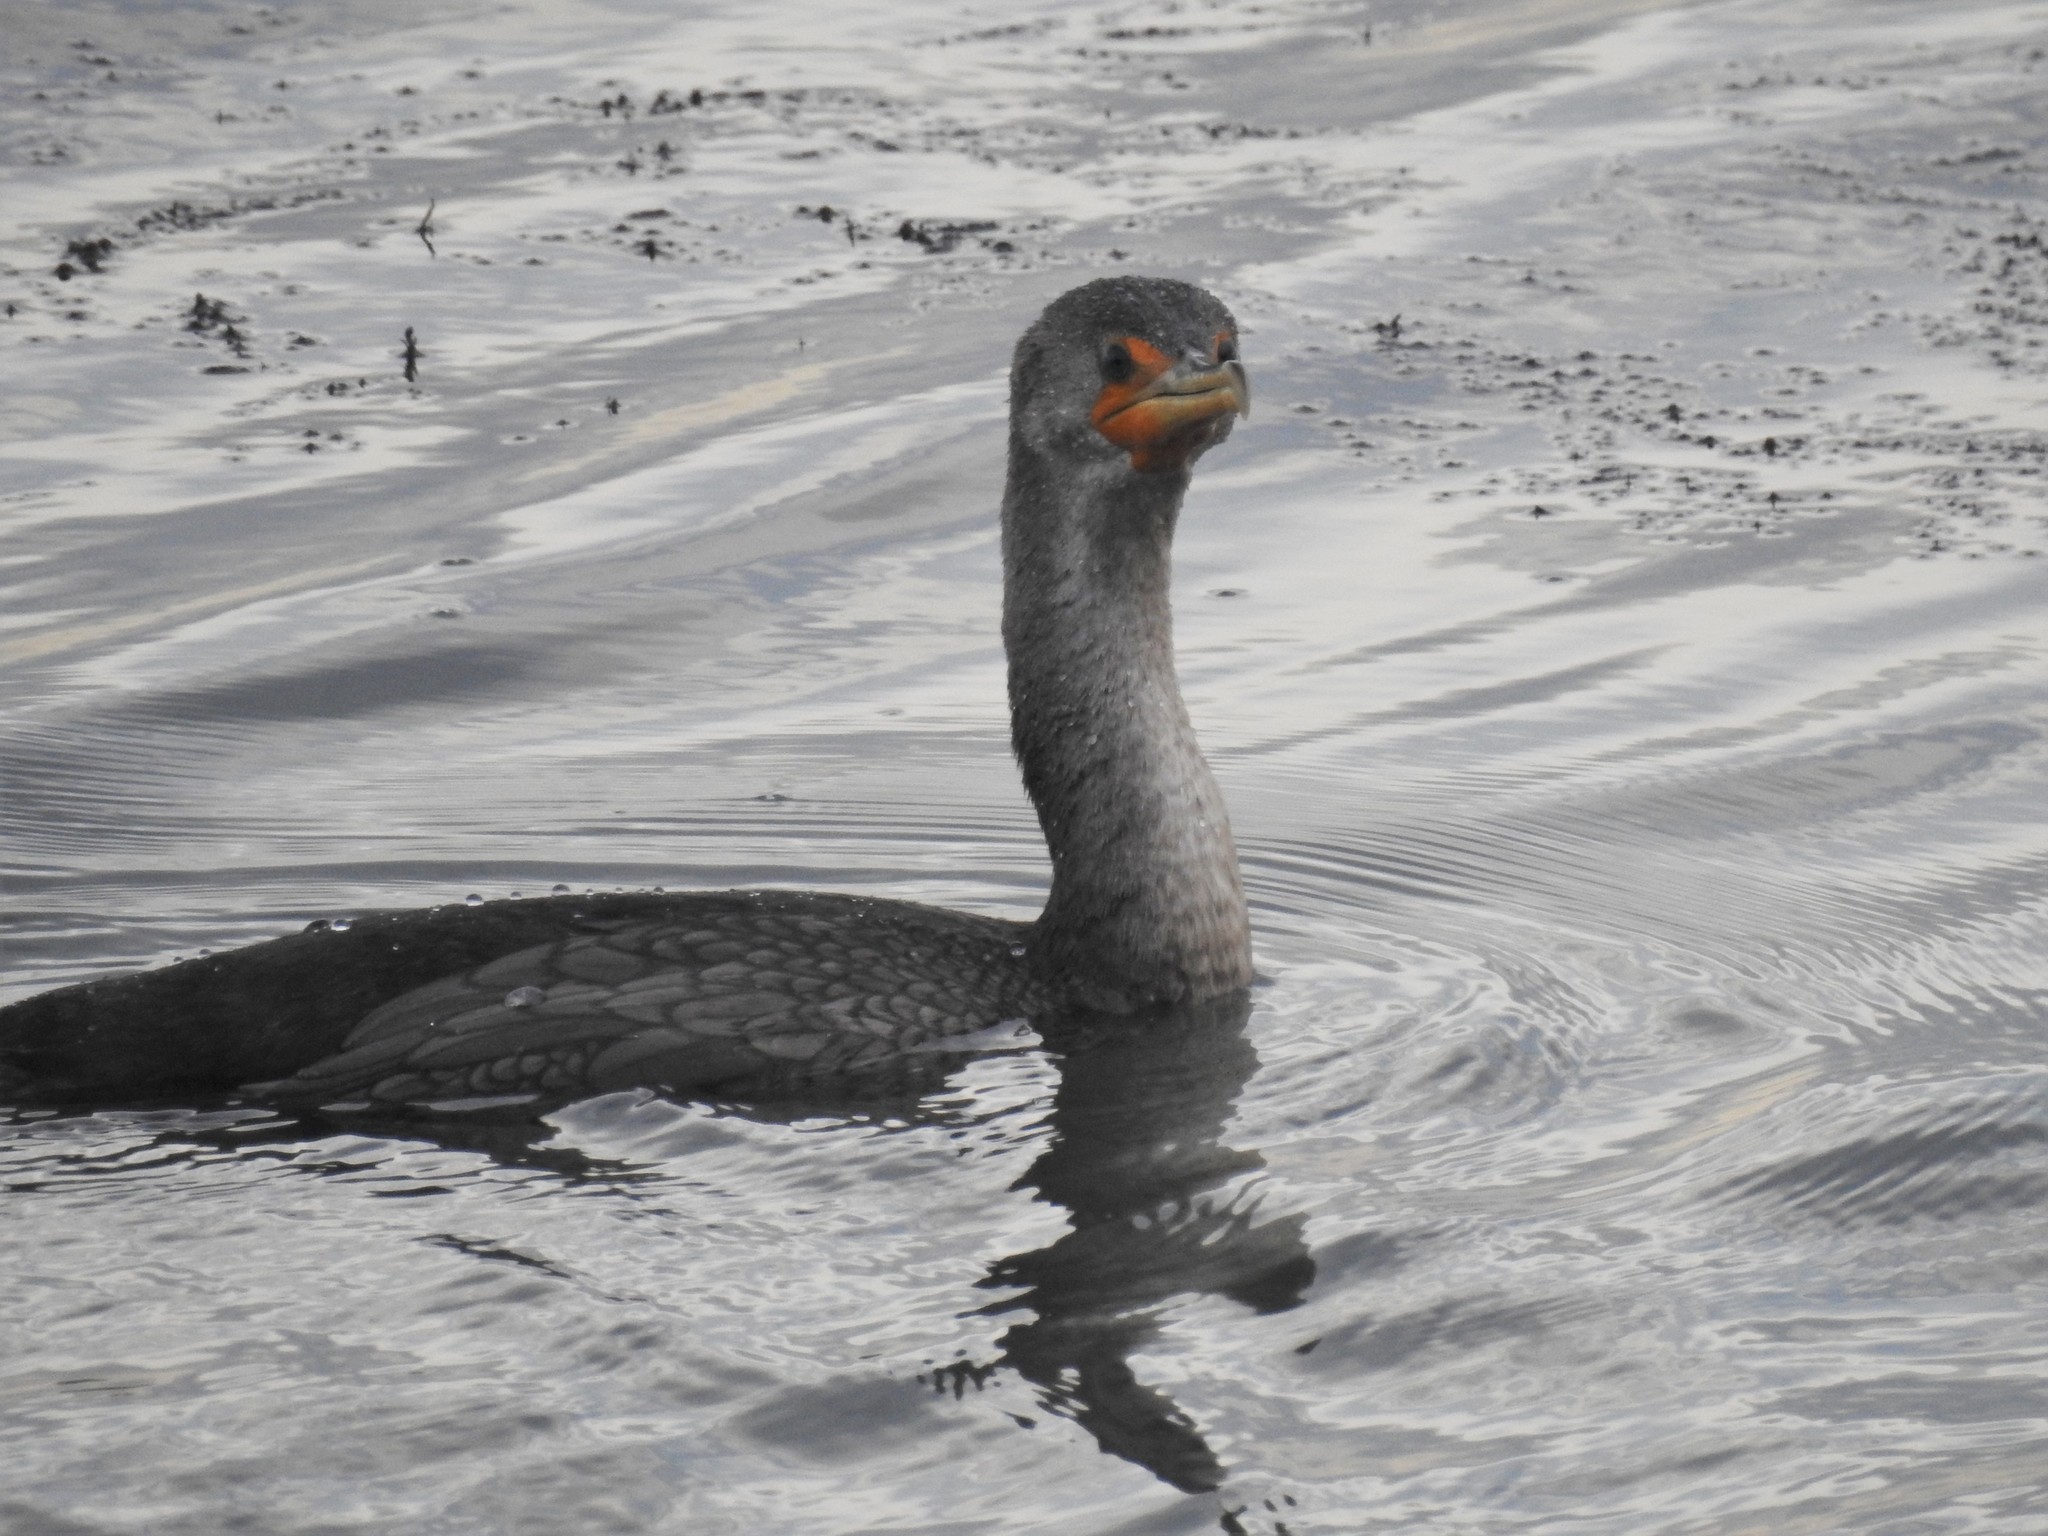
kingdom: Animalia
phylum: Chordata
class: Aves
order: Suliformes
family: Phalacrocoracidae
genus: Phalacrocorax
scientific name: Phalacrocorax auritus
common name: Double-crested cormorant
